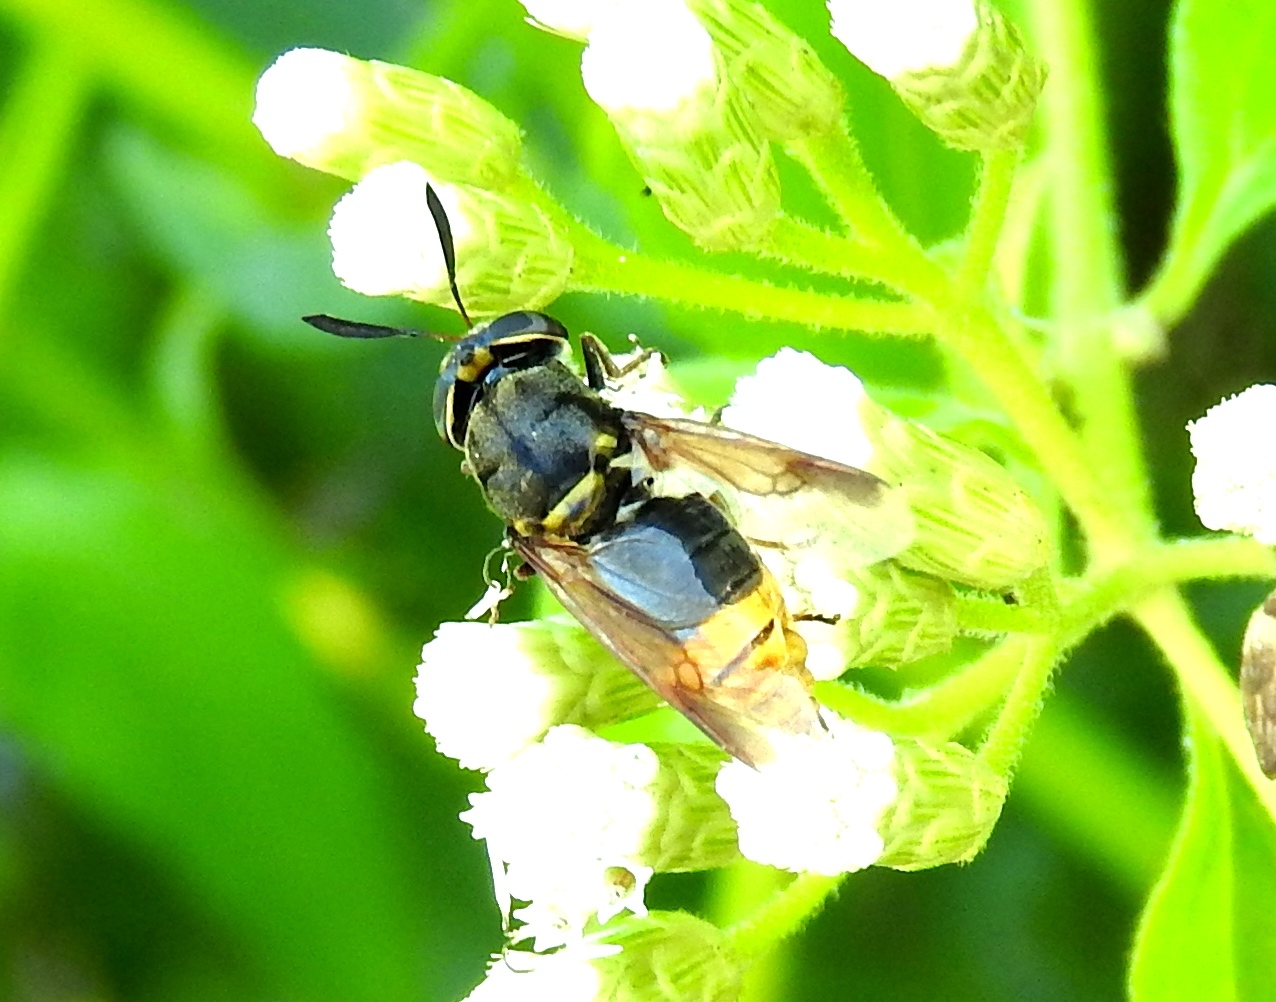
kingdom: Animalia
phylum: Arthropoda
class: Insecta
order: Diptera
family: Stratiomyidae
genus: Hoplitimyia
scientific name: Hoplitimyia mutabilis
